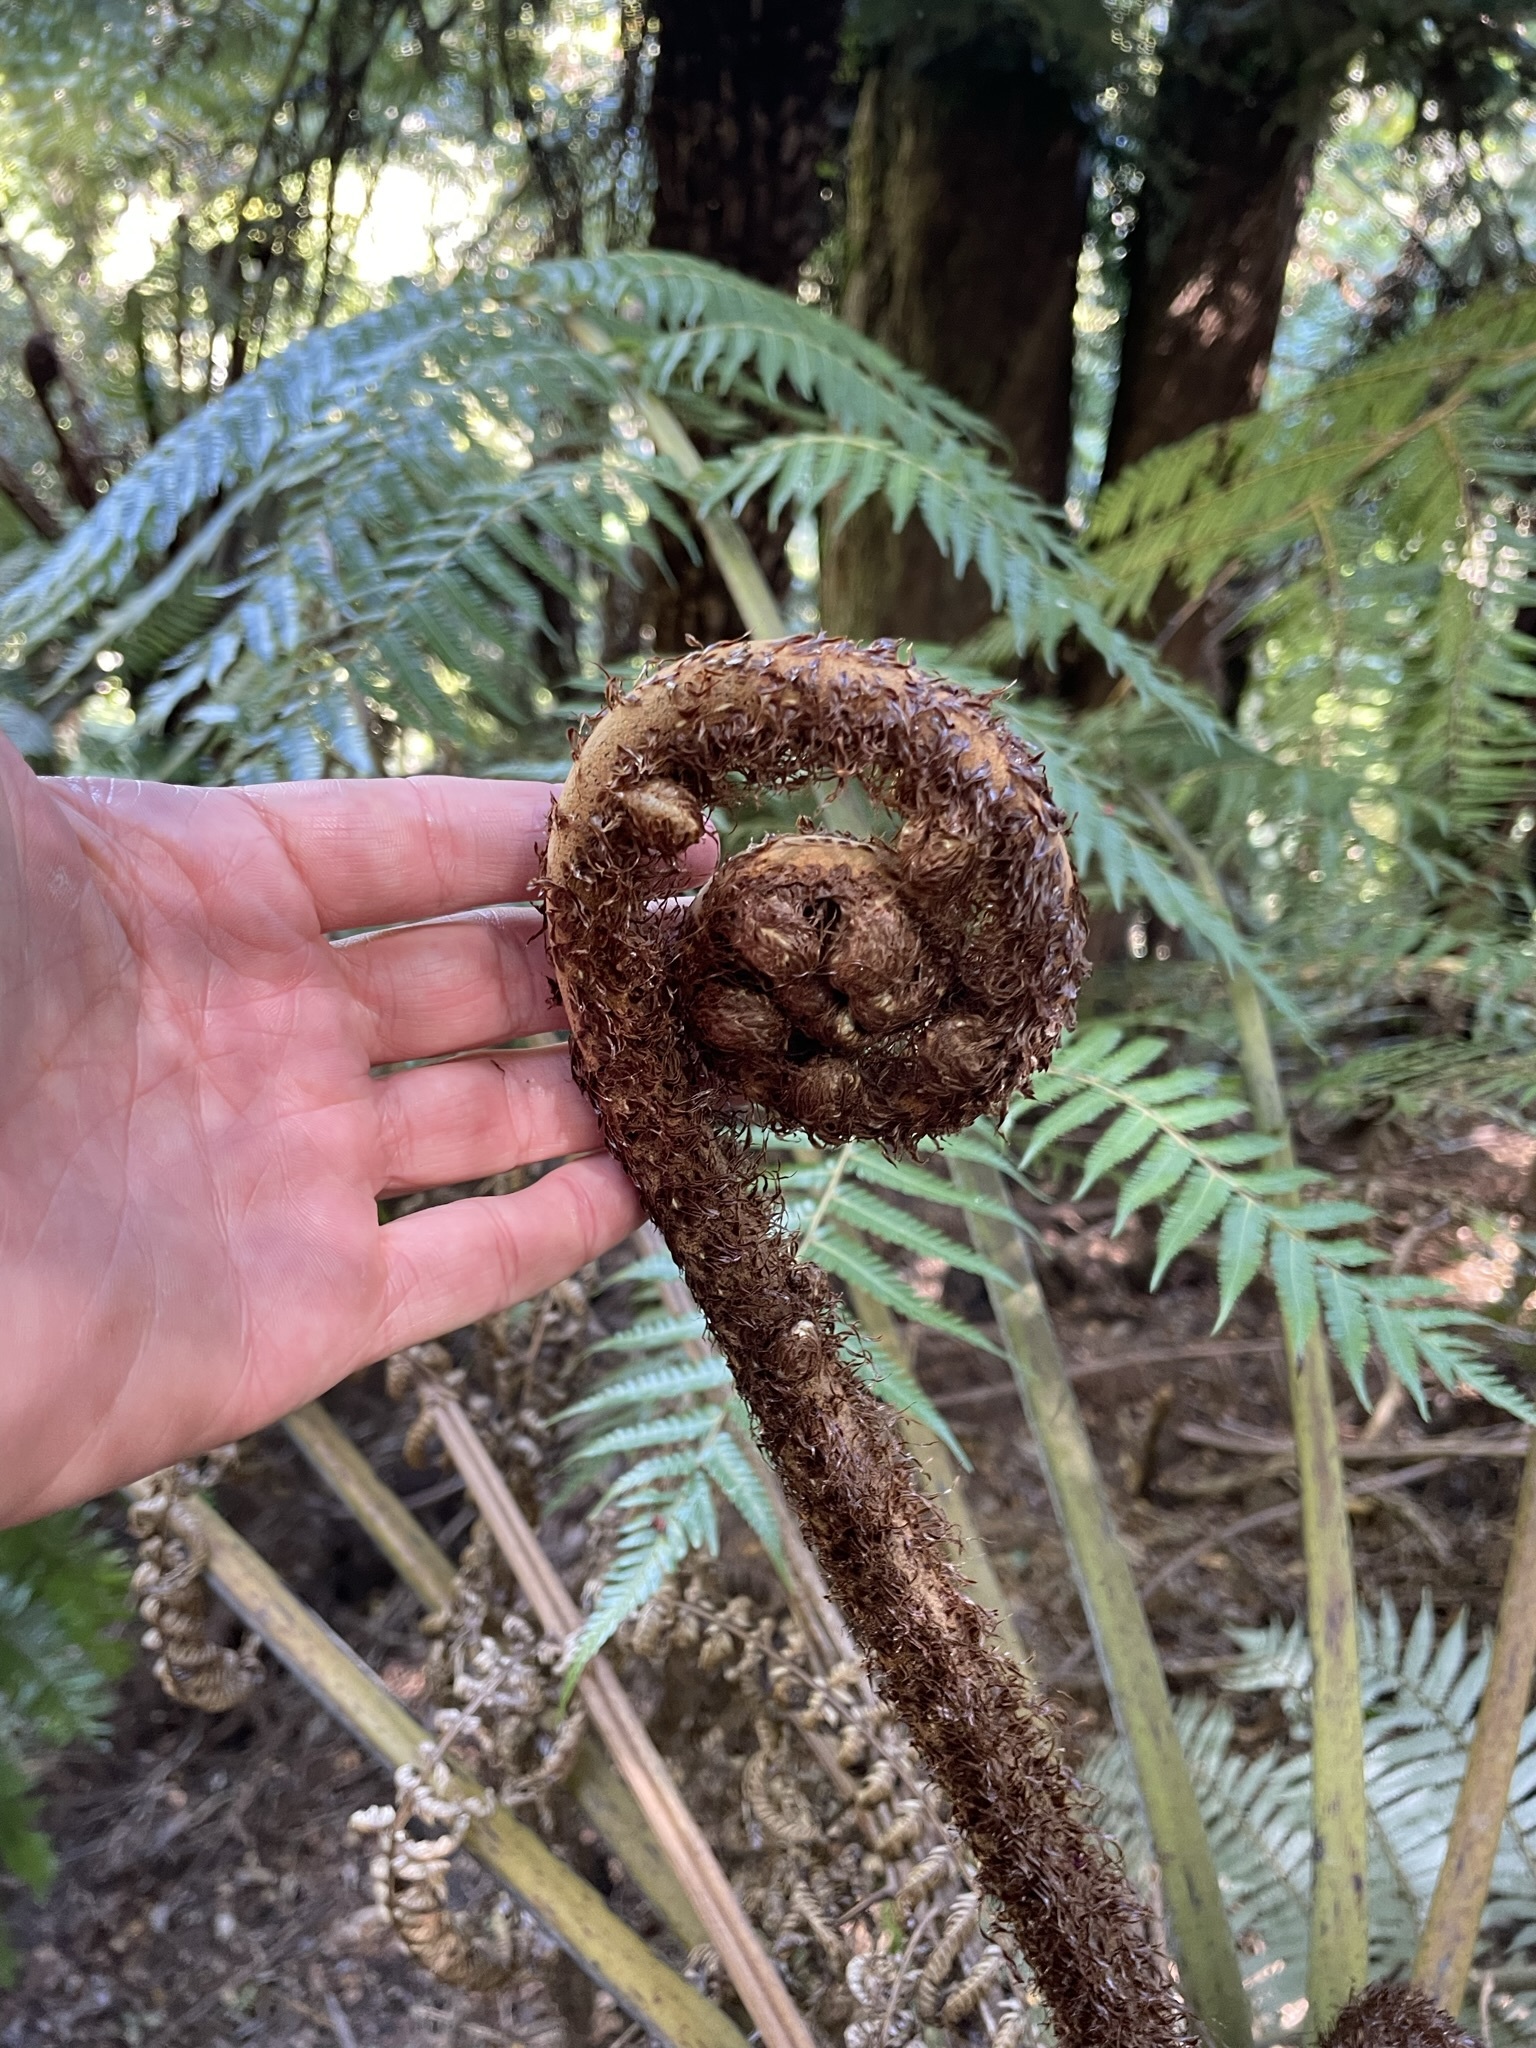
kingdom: Plantae
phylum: Tracheophyta
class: Polypodiopsida
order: Cyatheales
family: Cyatheaceae
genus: Alsophila
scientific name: Alsophila dealbata
